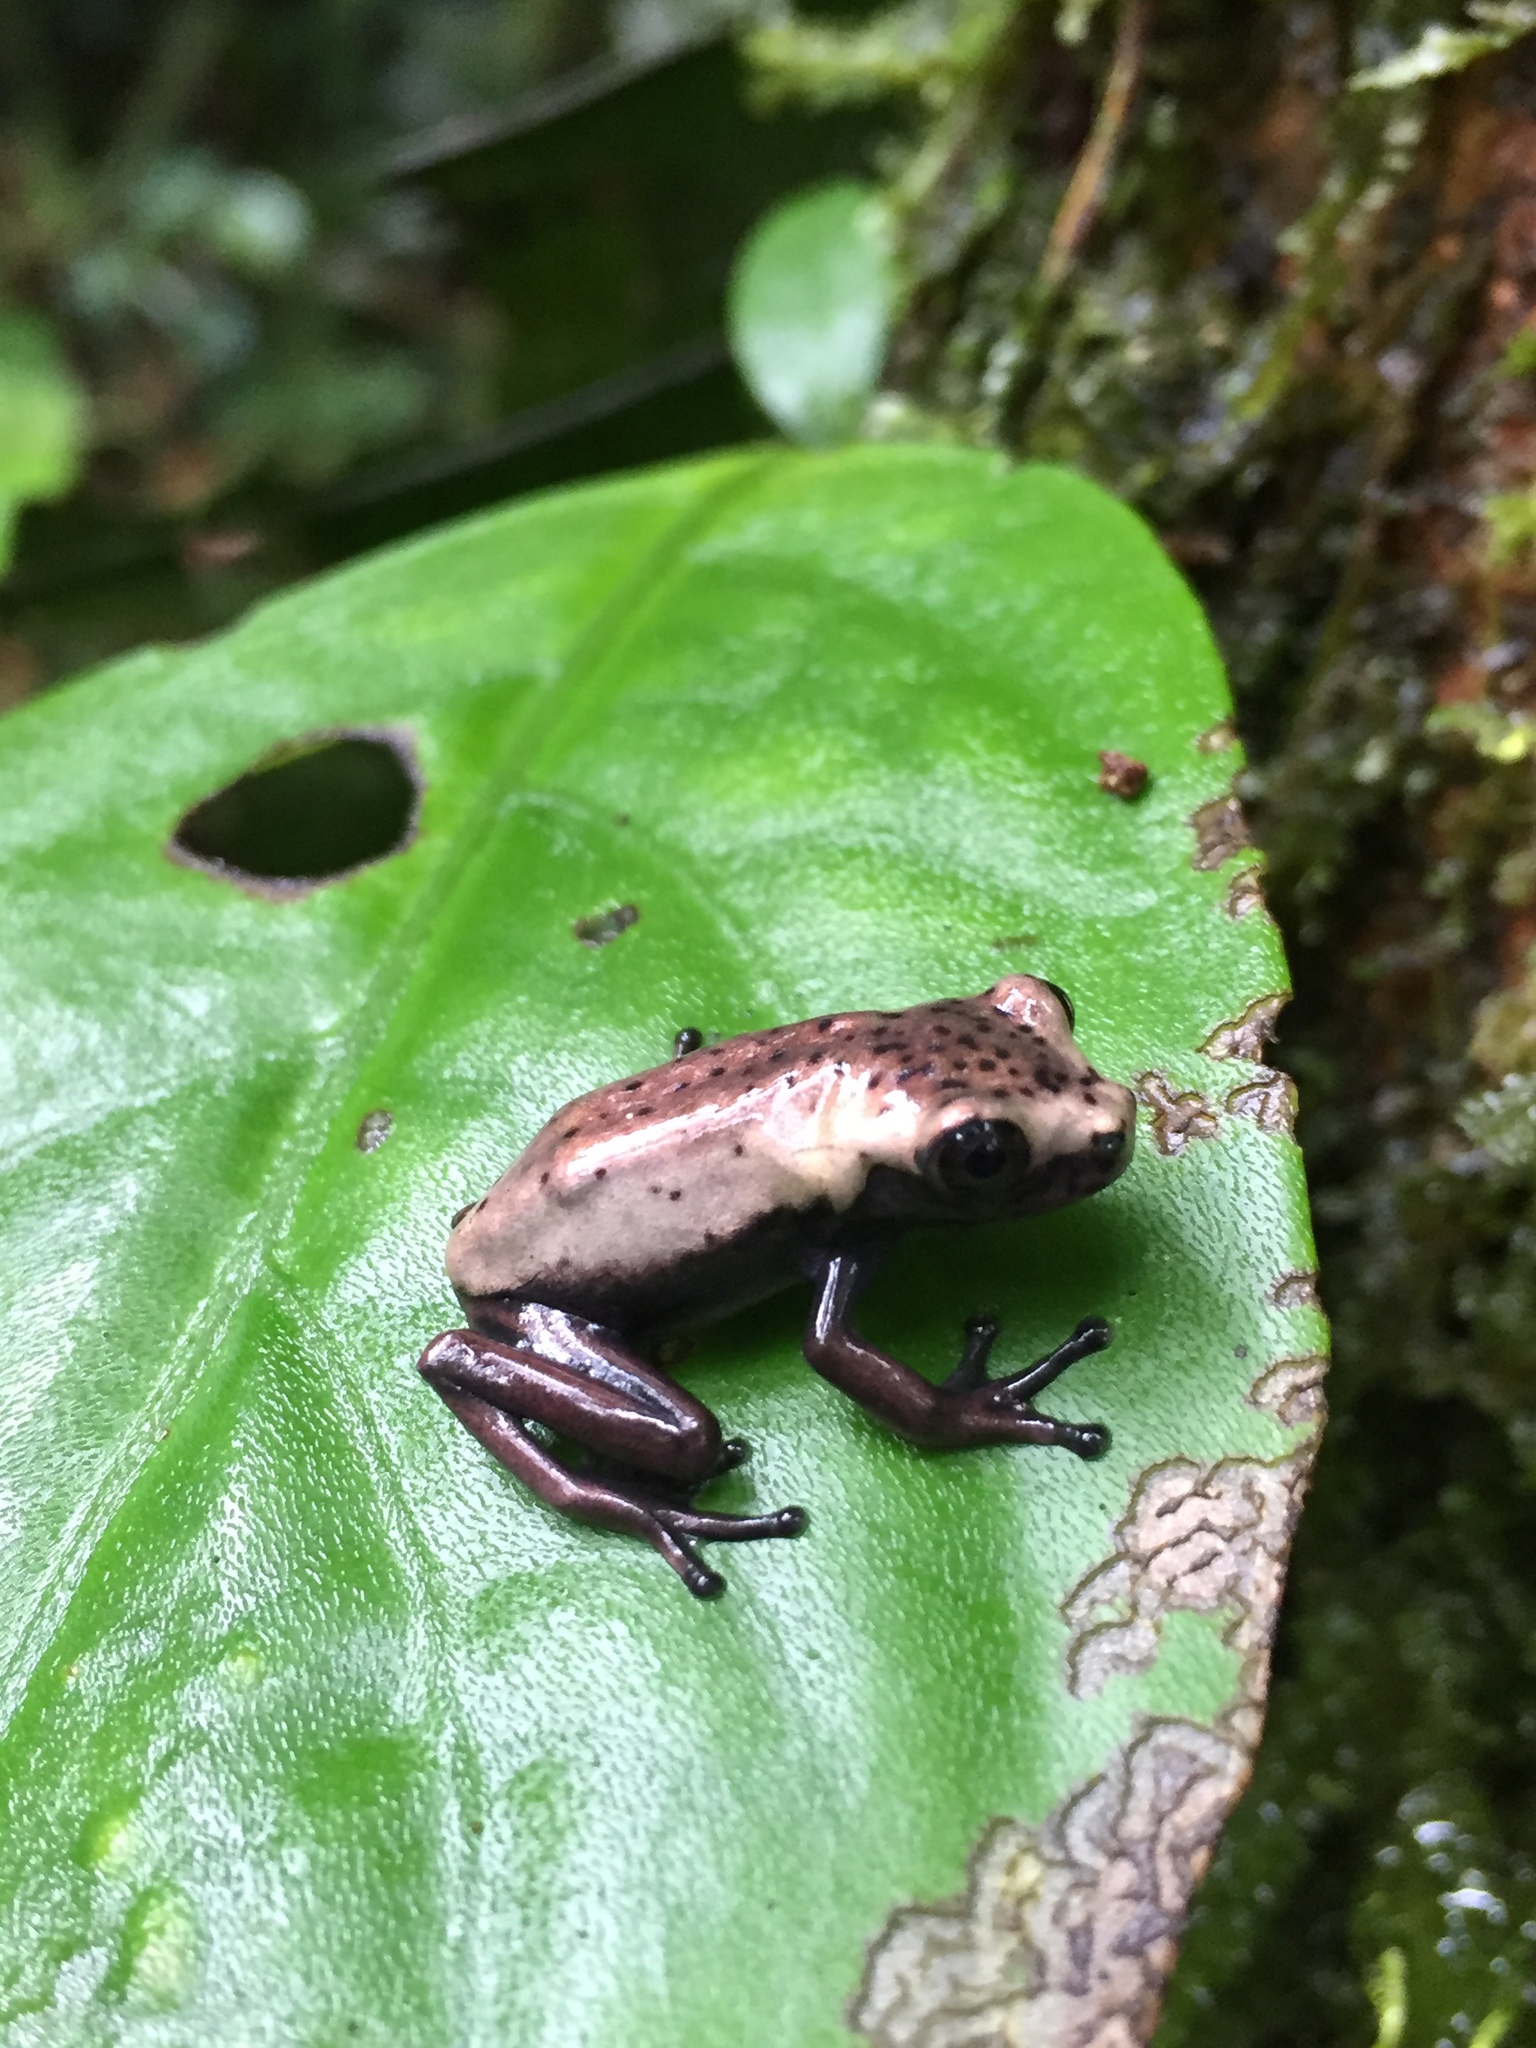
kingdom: Animalia
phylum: Chordata
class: Amphibia
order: Anura
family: Hylidae
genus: Boana
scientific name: Boana appendiculata
